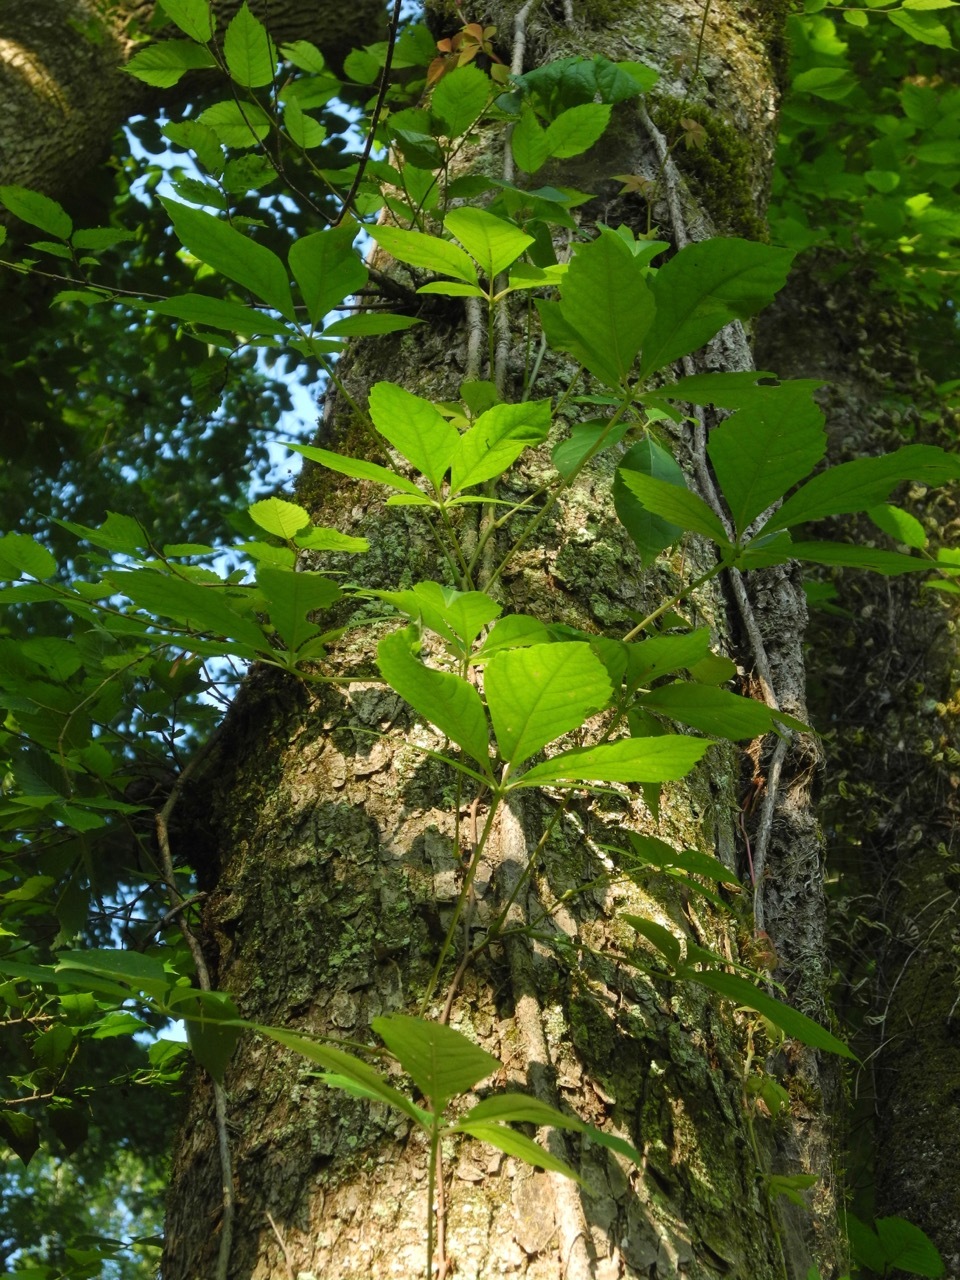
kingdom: Plantae
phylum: Tracheophyta
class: Magnoliopsida
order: Vitales
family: Vitaceae
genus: Parthenocissus
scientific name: Parthenocissus quinquefolia
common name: Virginia-creeper
